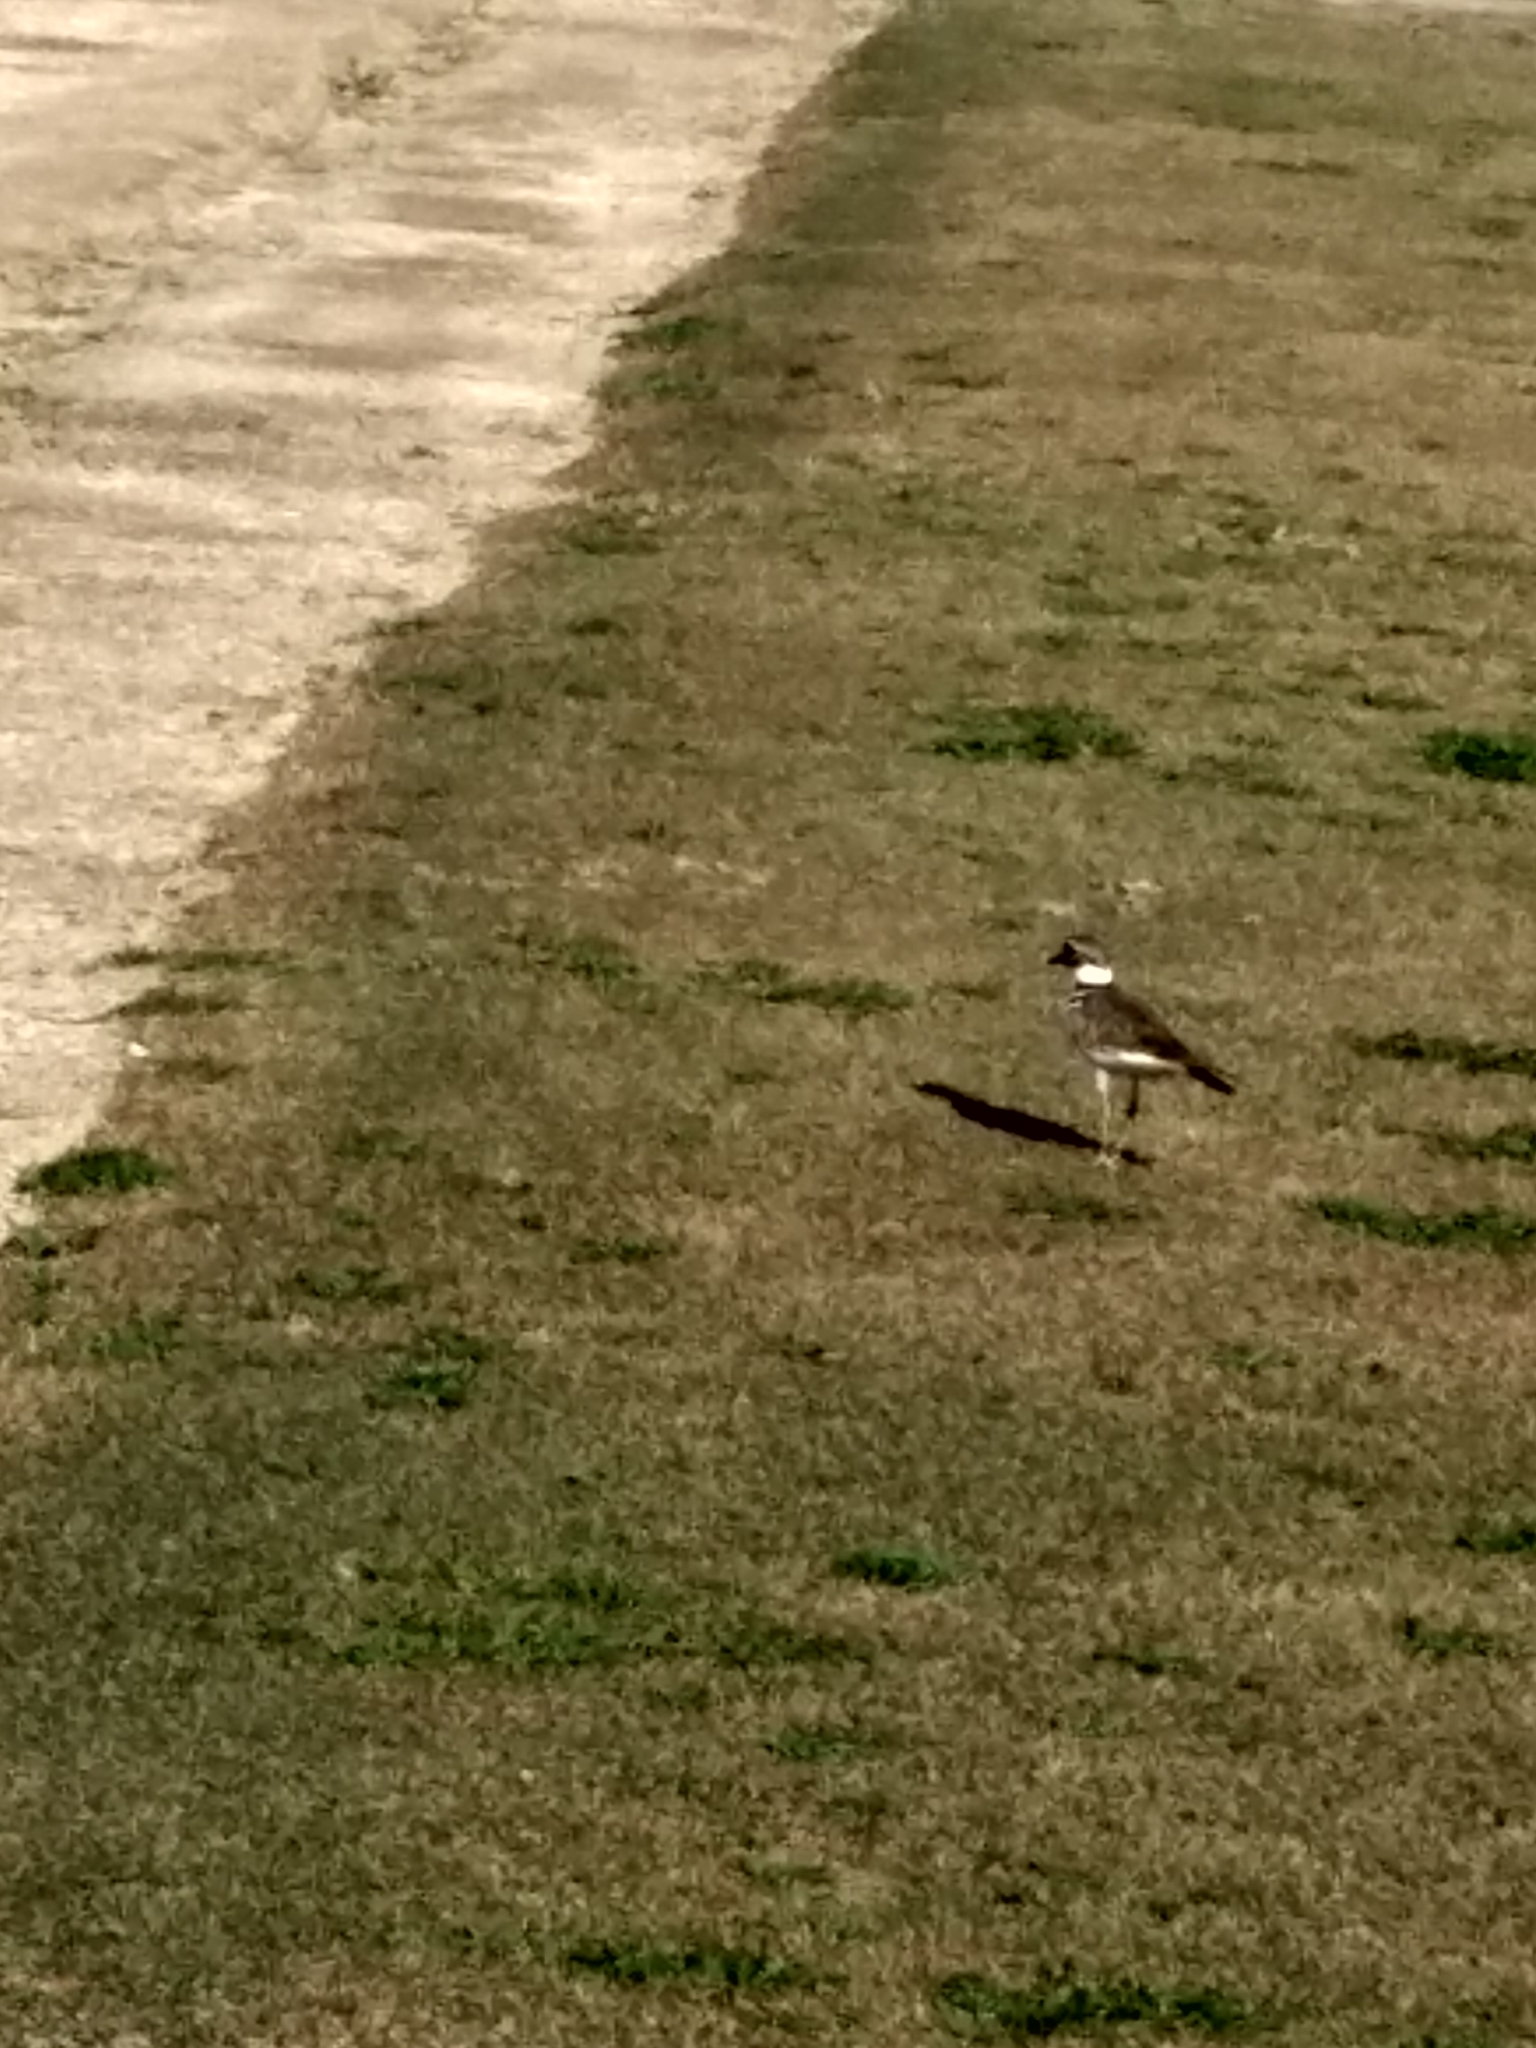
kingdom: Animalia
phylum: Chordata
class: Aves
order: Charadriiformes
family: Charadriidae
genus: Charadrius
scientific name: Charadrius vociferus
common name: Killdeer
